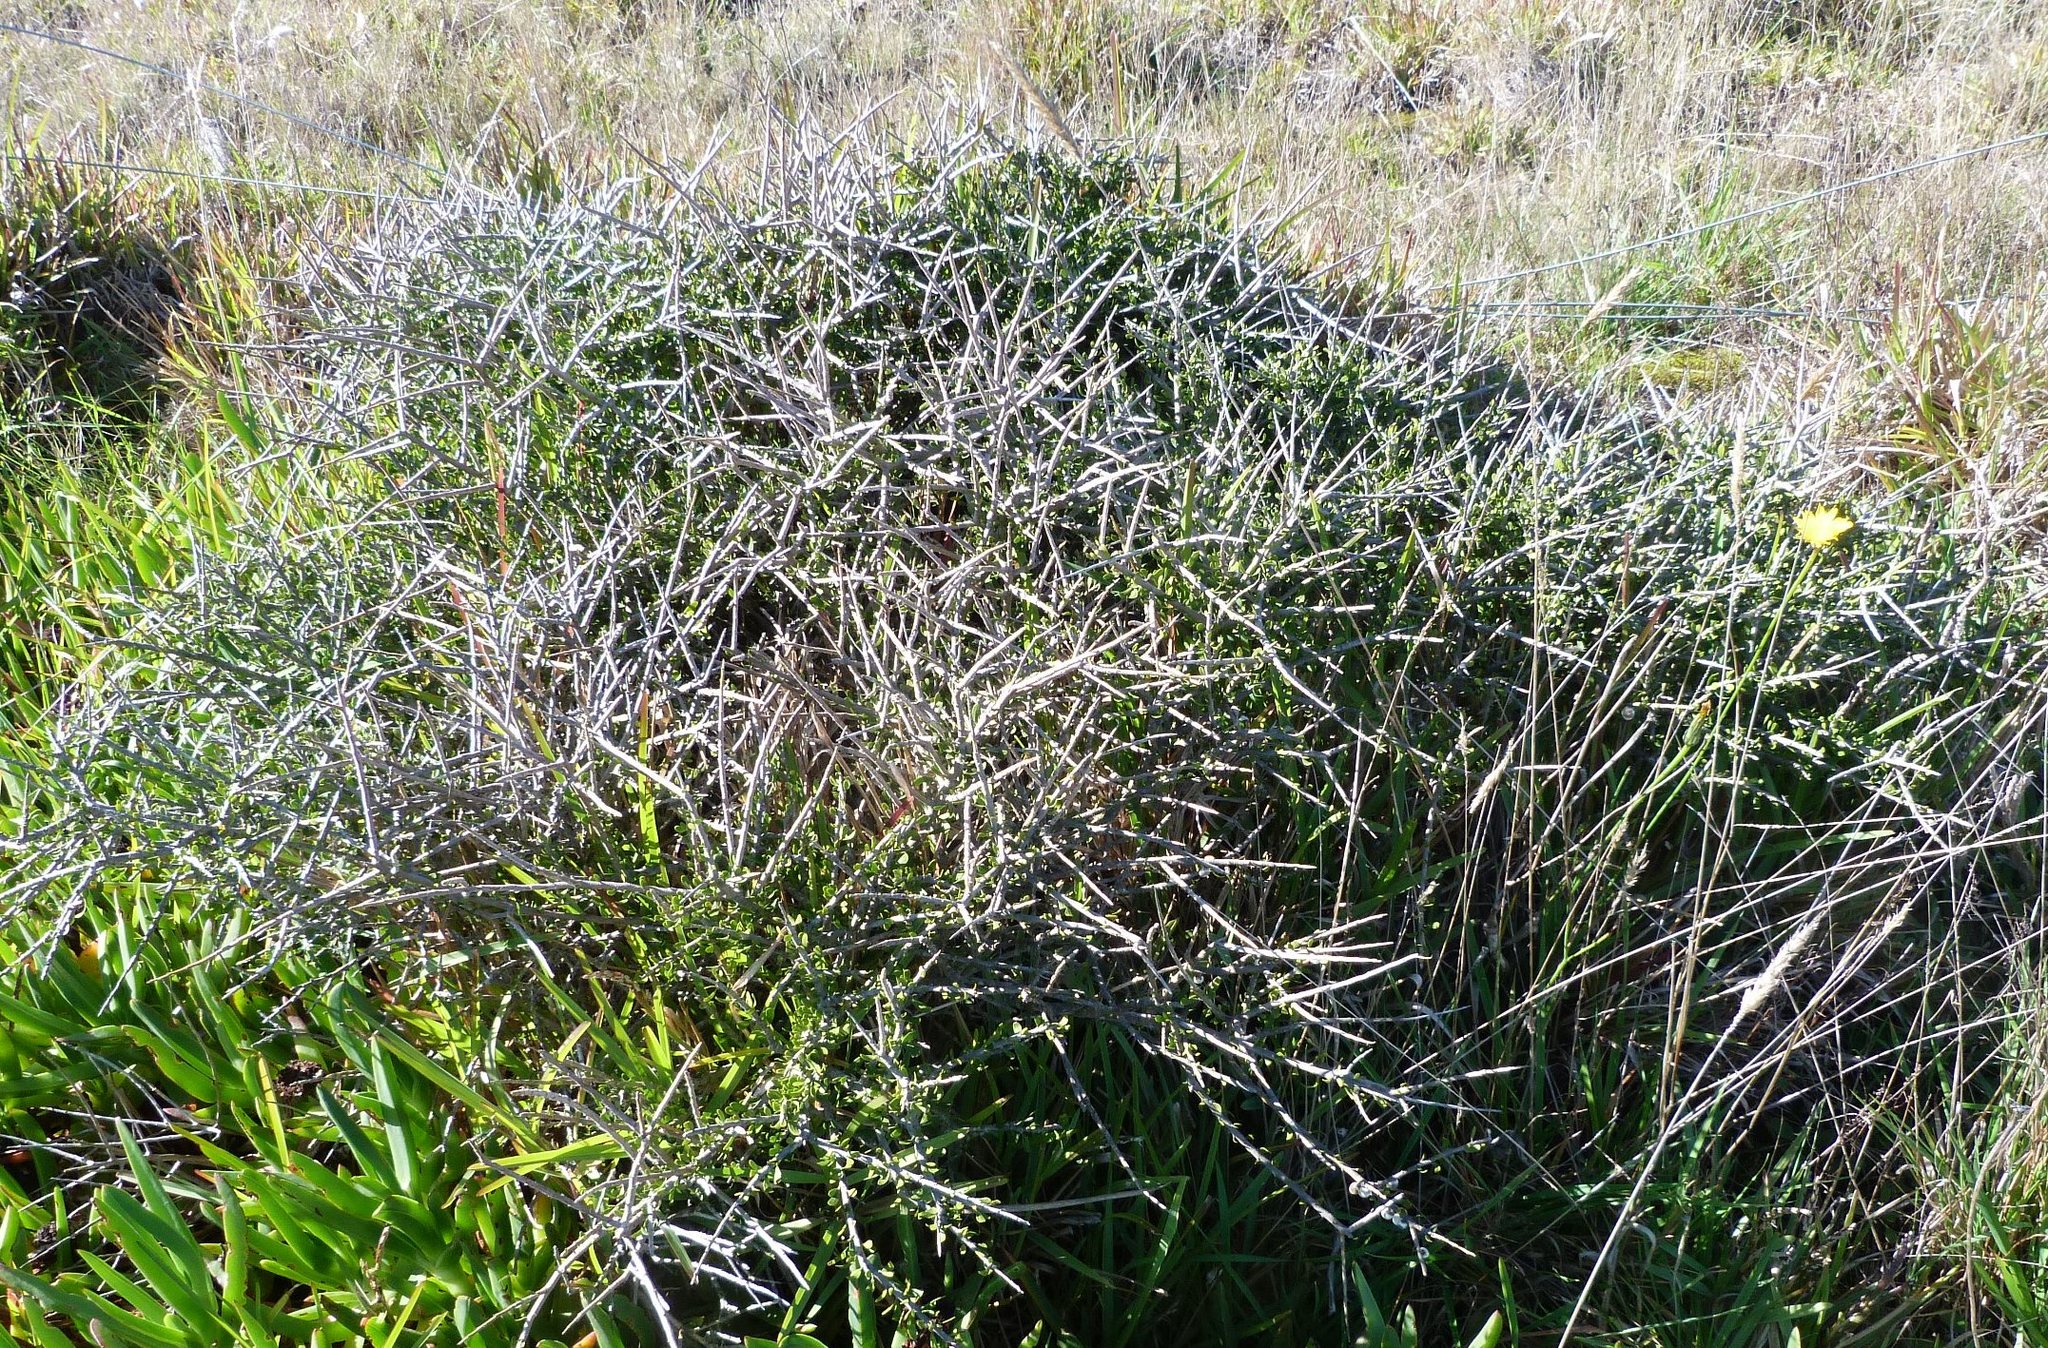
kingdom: Plantae
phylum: Tracheophyta
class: Magnoliopsida
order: Malpighiales
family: Violaceae
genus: Melicytus
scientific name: Melicytus alpinus
